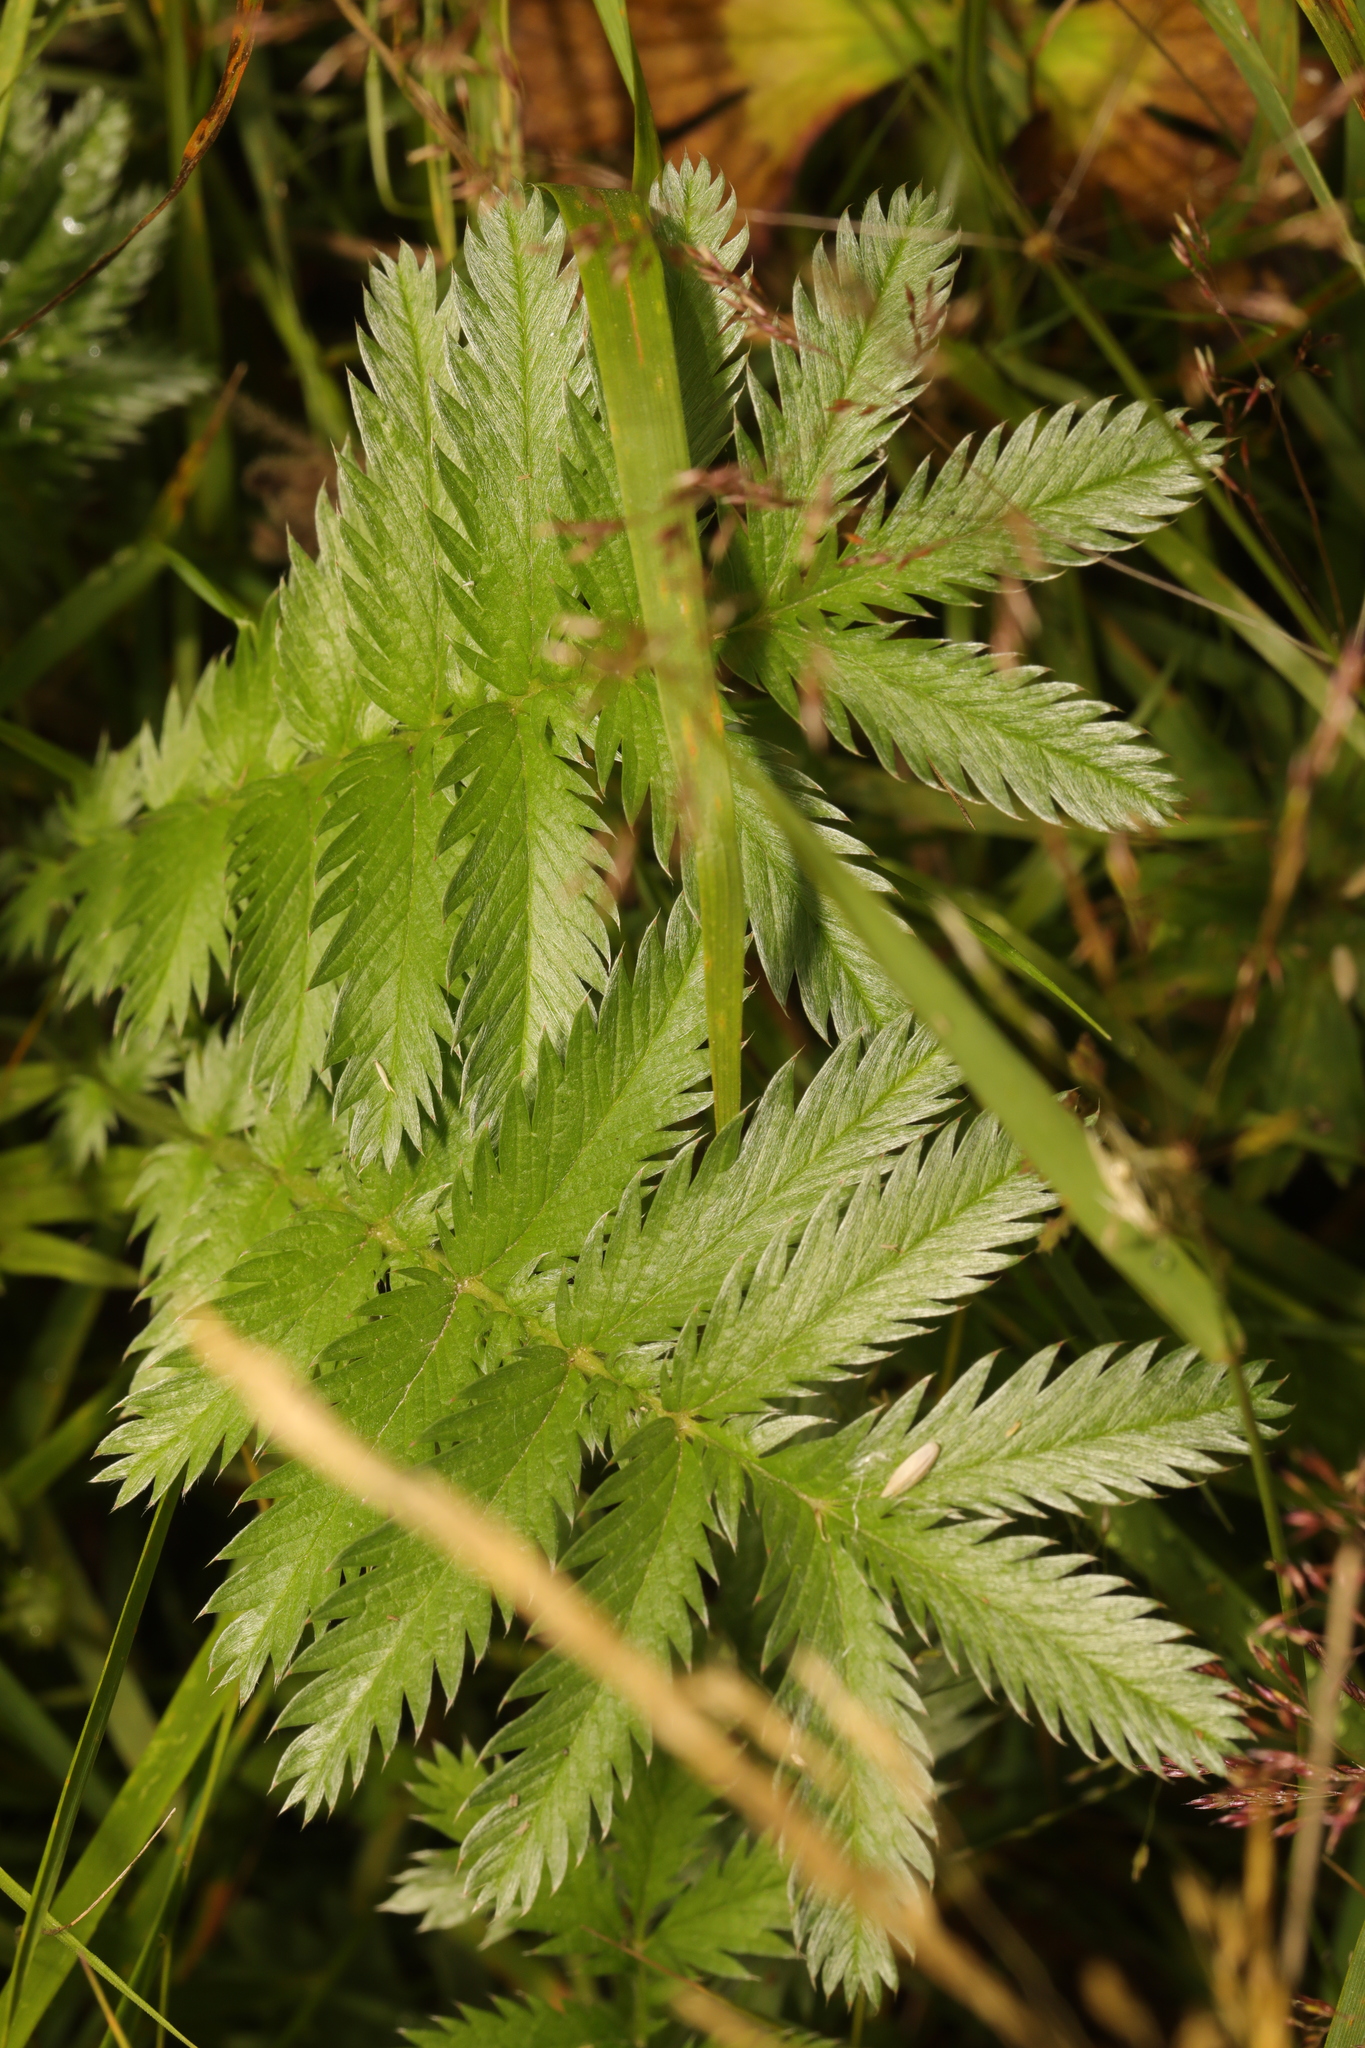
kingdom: Plantae
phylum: Tracheophyta
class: Magnoliopsida
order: Rosales
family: Rosaceae
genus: Argentina
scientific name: Argentina anserina
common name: Common silverweed
